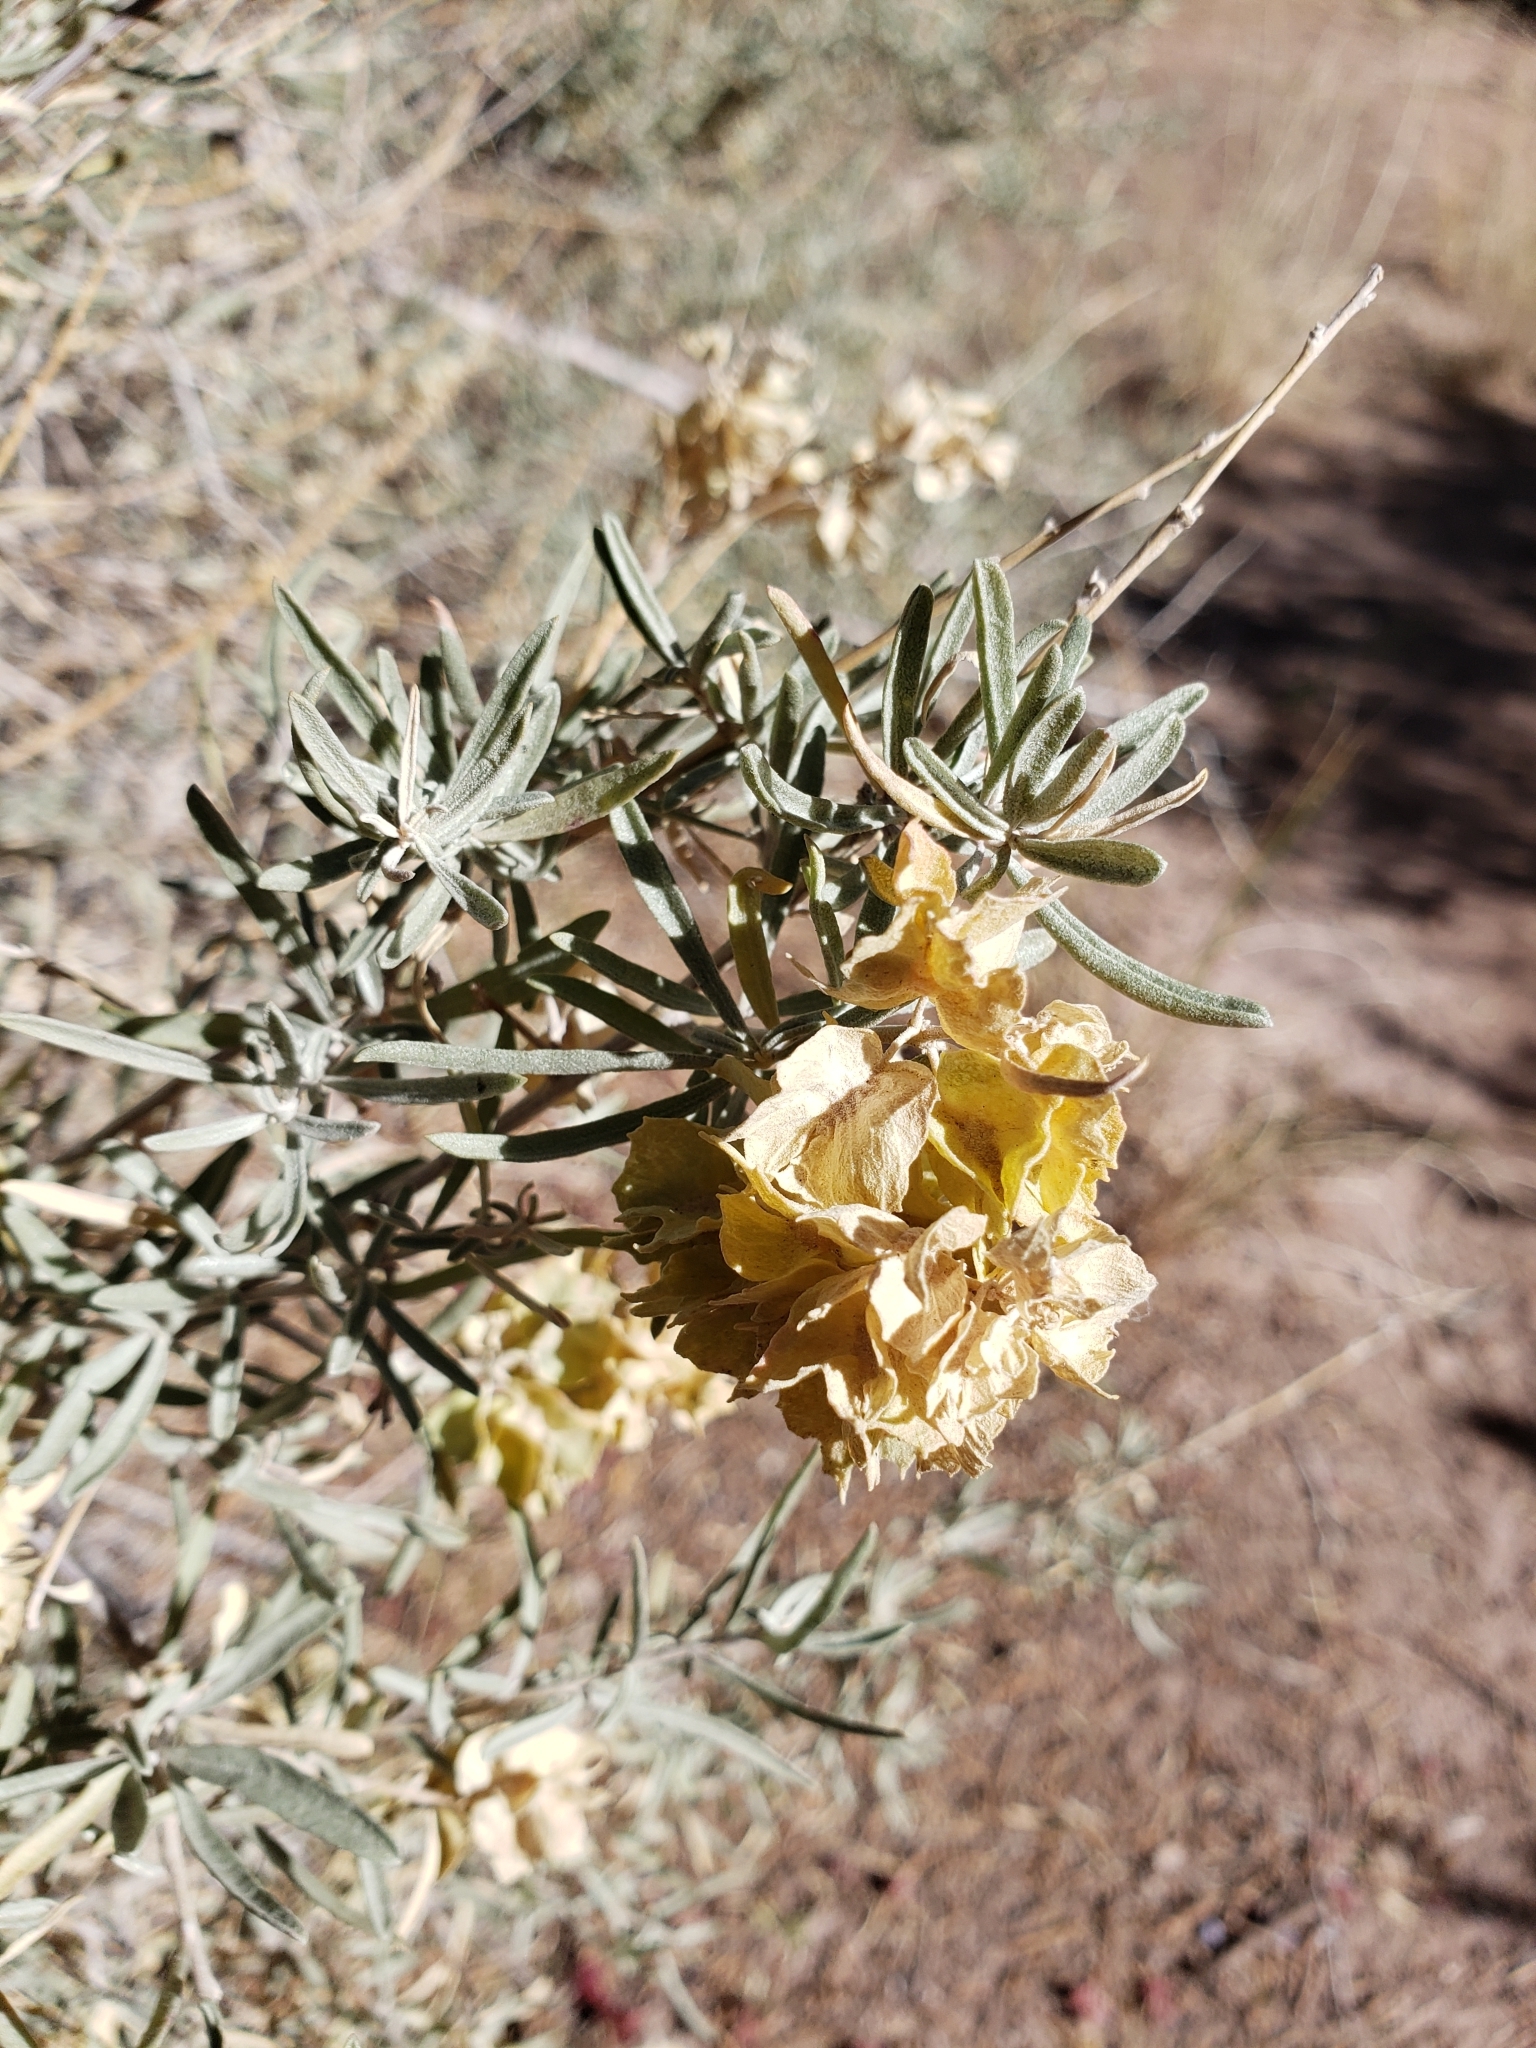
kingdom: Plantae
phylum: Tracheophyta
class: Magnoliopsida
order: Caryophyllales
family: Amaranthaceae
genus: Atriplex
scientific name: Atriplex canescens
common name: Four-wing saltbush
